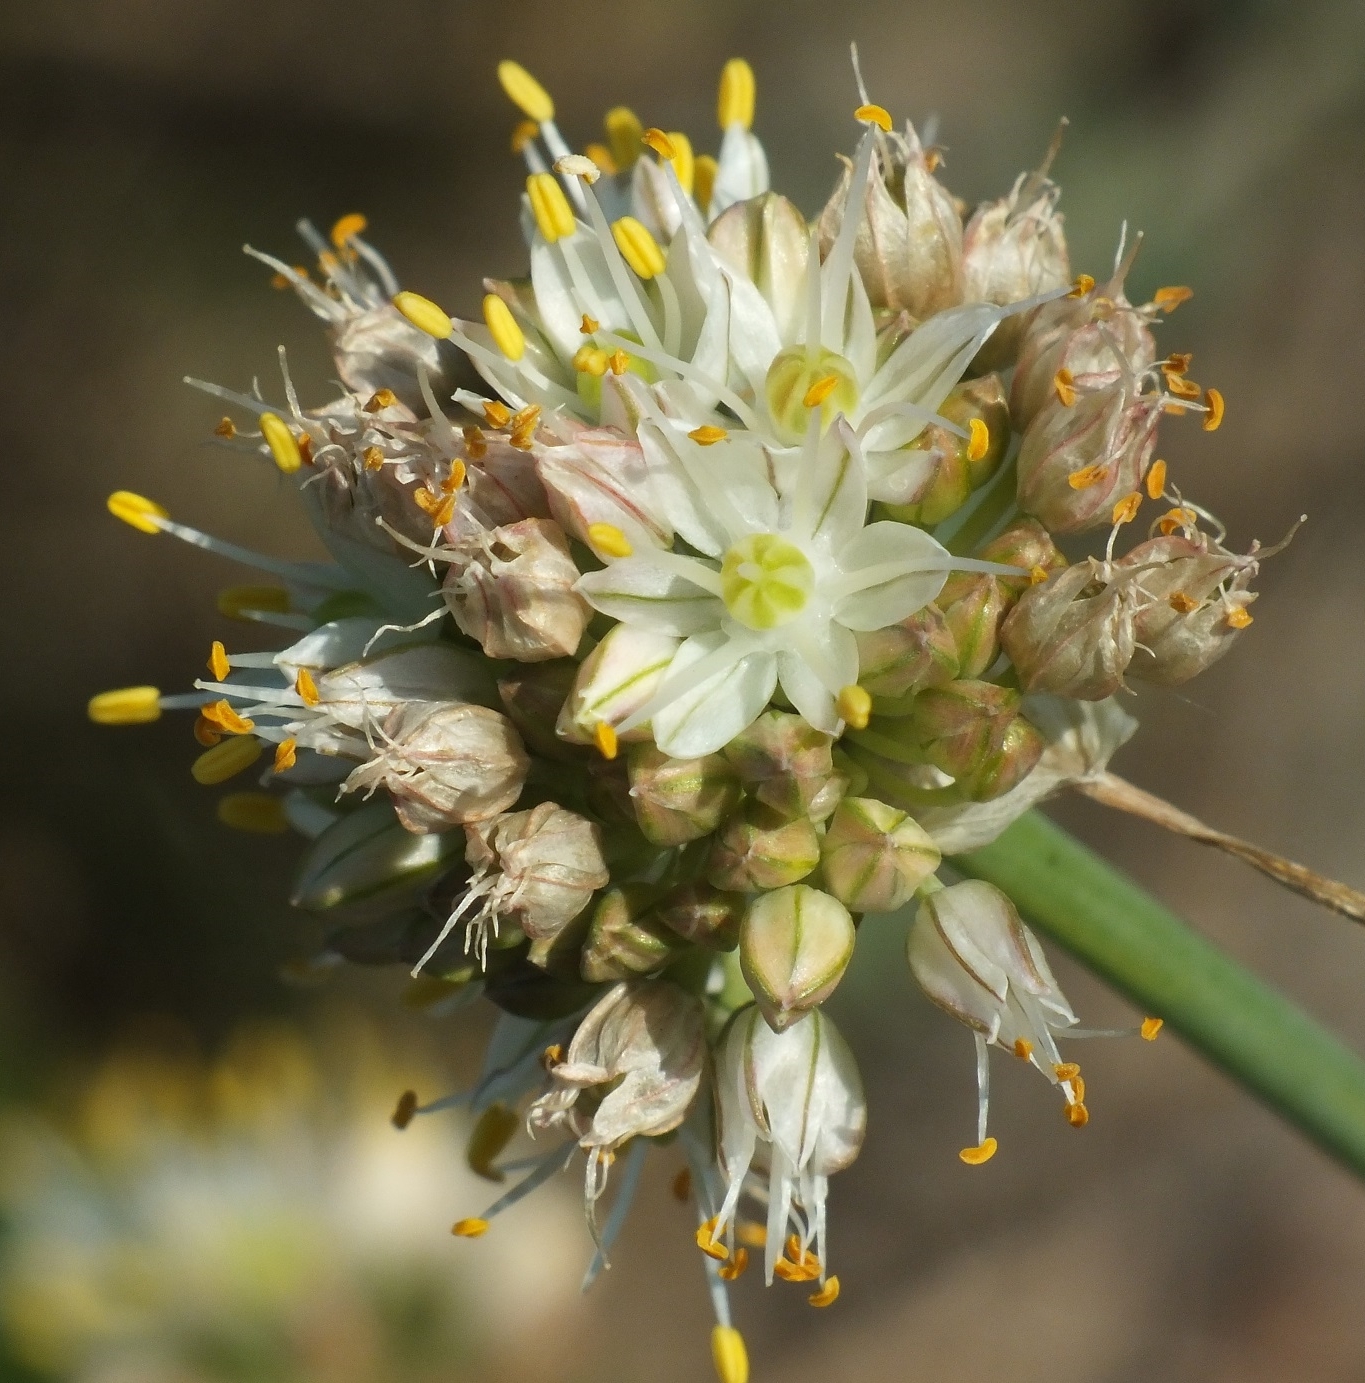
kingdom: Plantae
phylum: Tracheophyta
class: Liliopsida
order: Asparagales
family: Amaryllidaceae
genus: Allium
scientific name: Allium marschallianum
